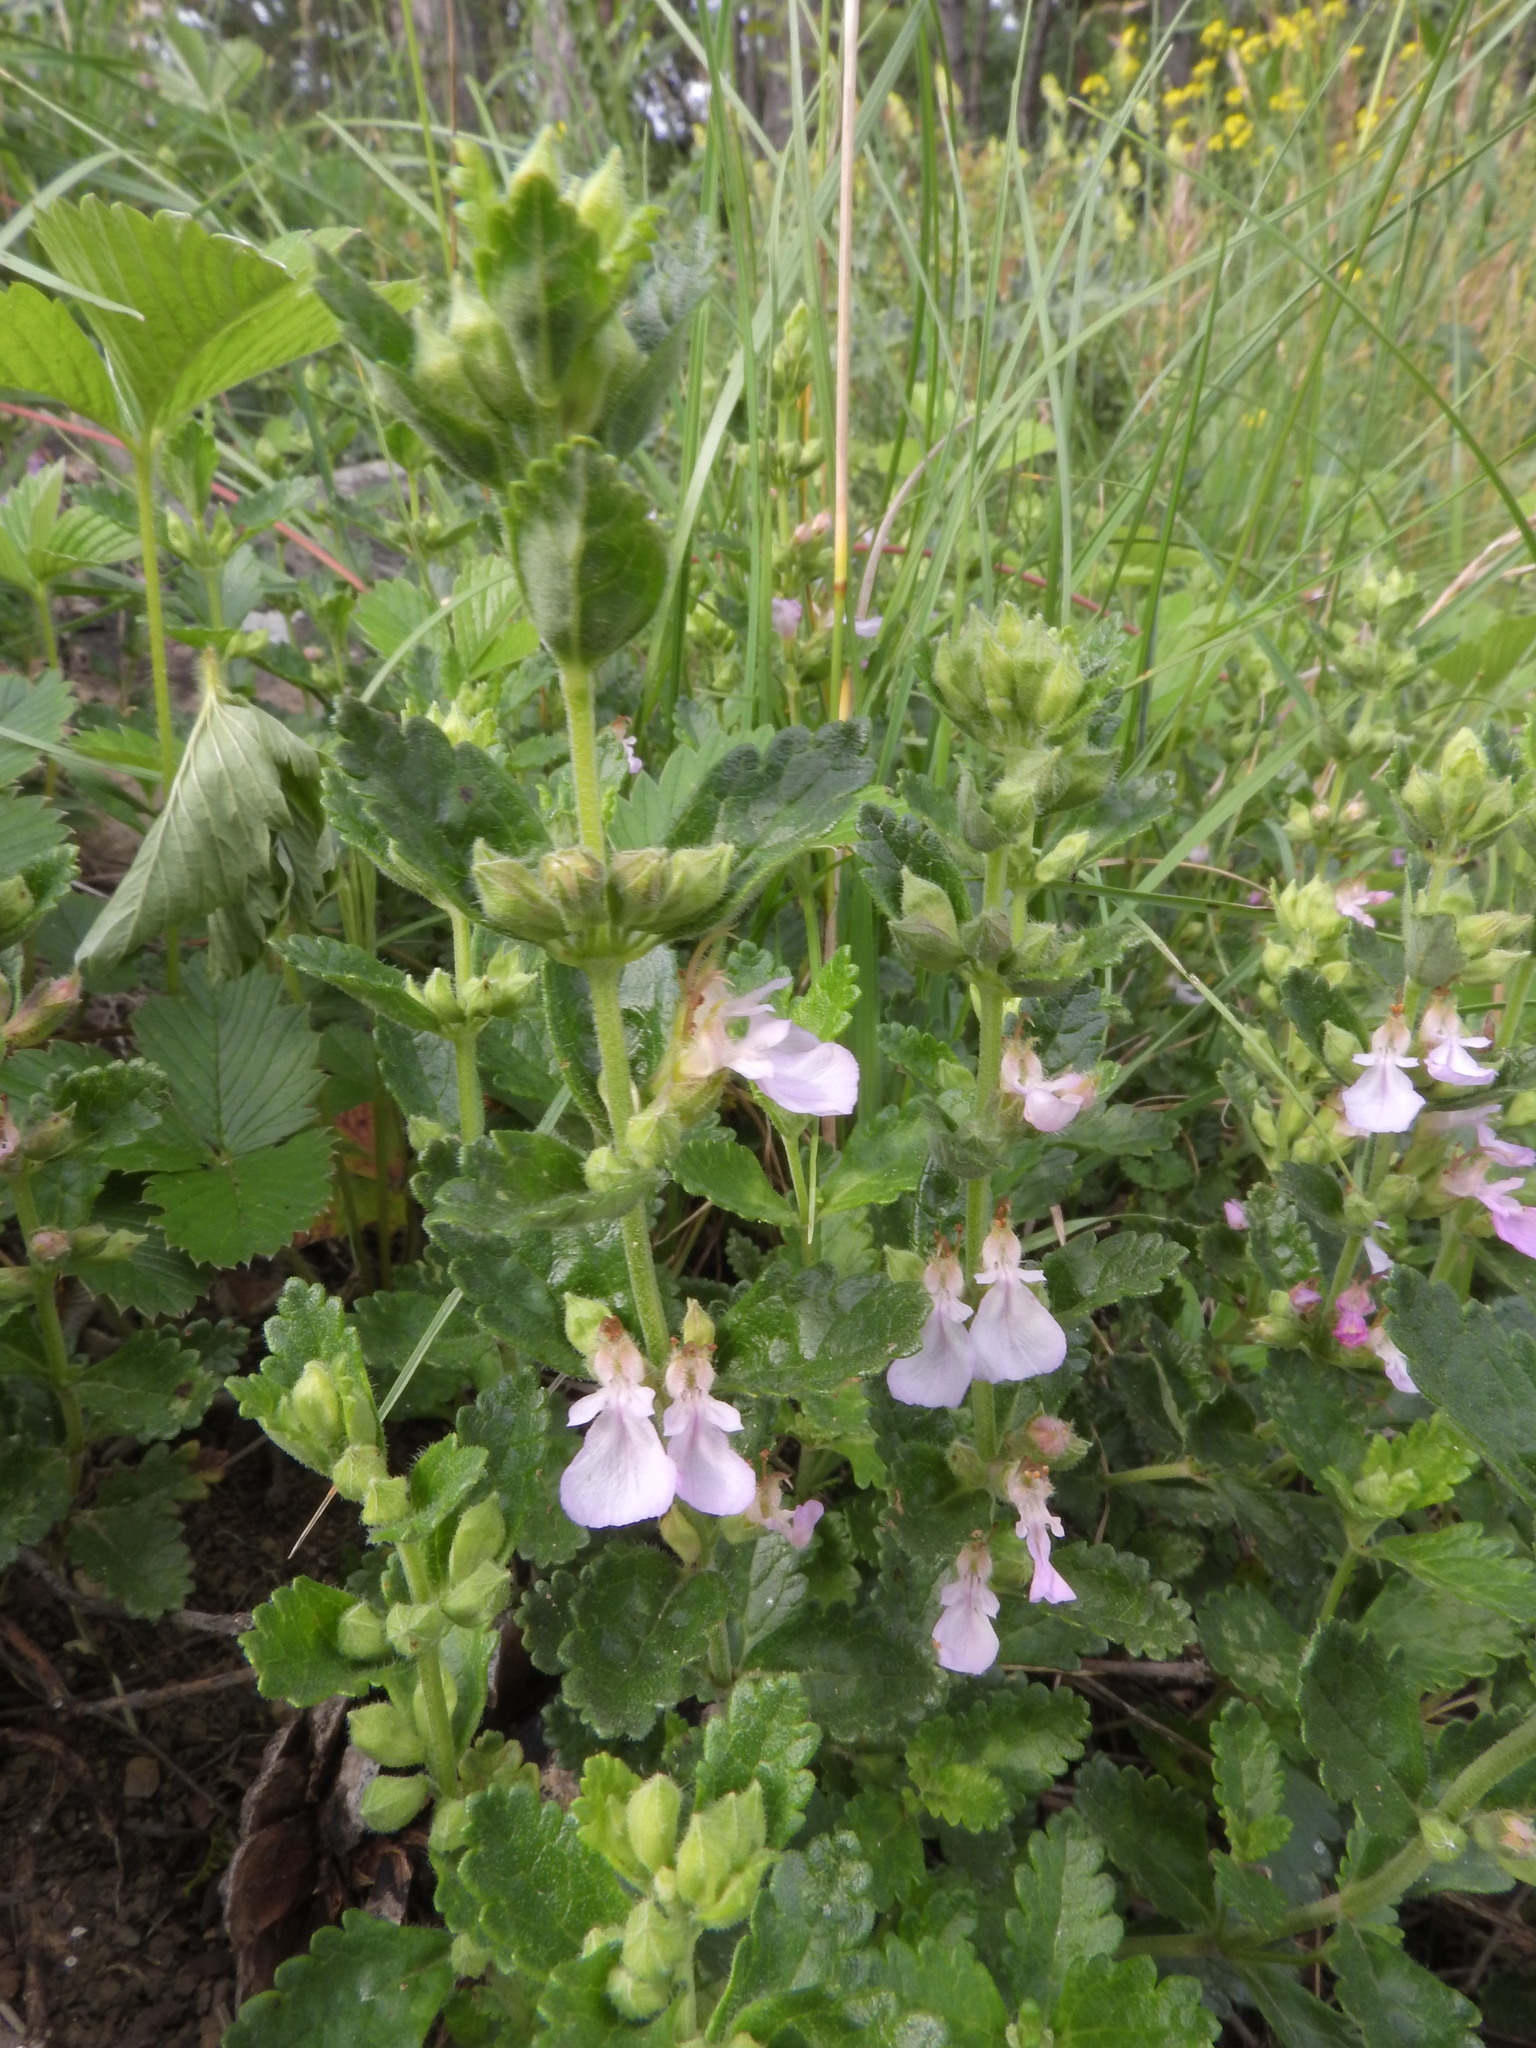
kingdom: Plantae
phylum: Tracheophyta
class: Magnoliopsida
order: Lamiales
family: Lamiaceae
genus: Teucrium
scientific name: Teucrium chamaedrys
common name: Wall germander
